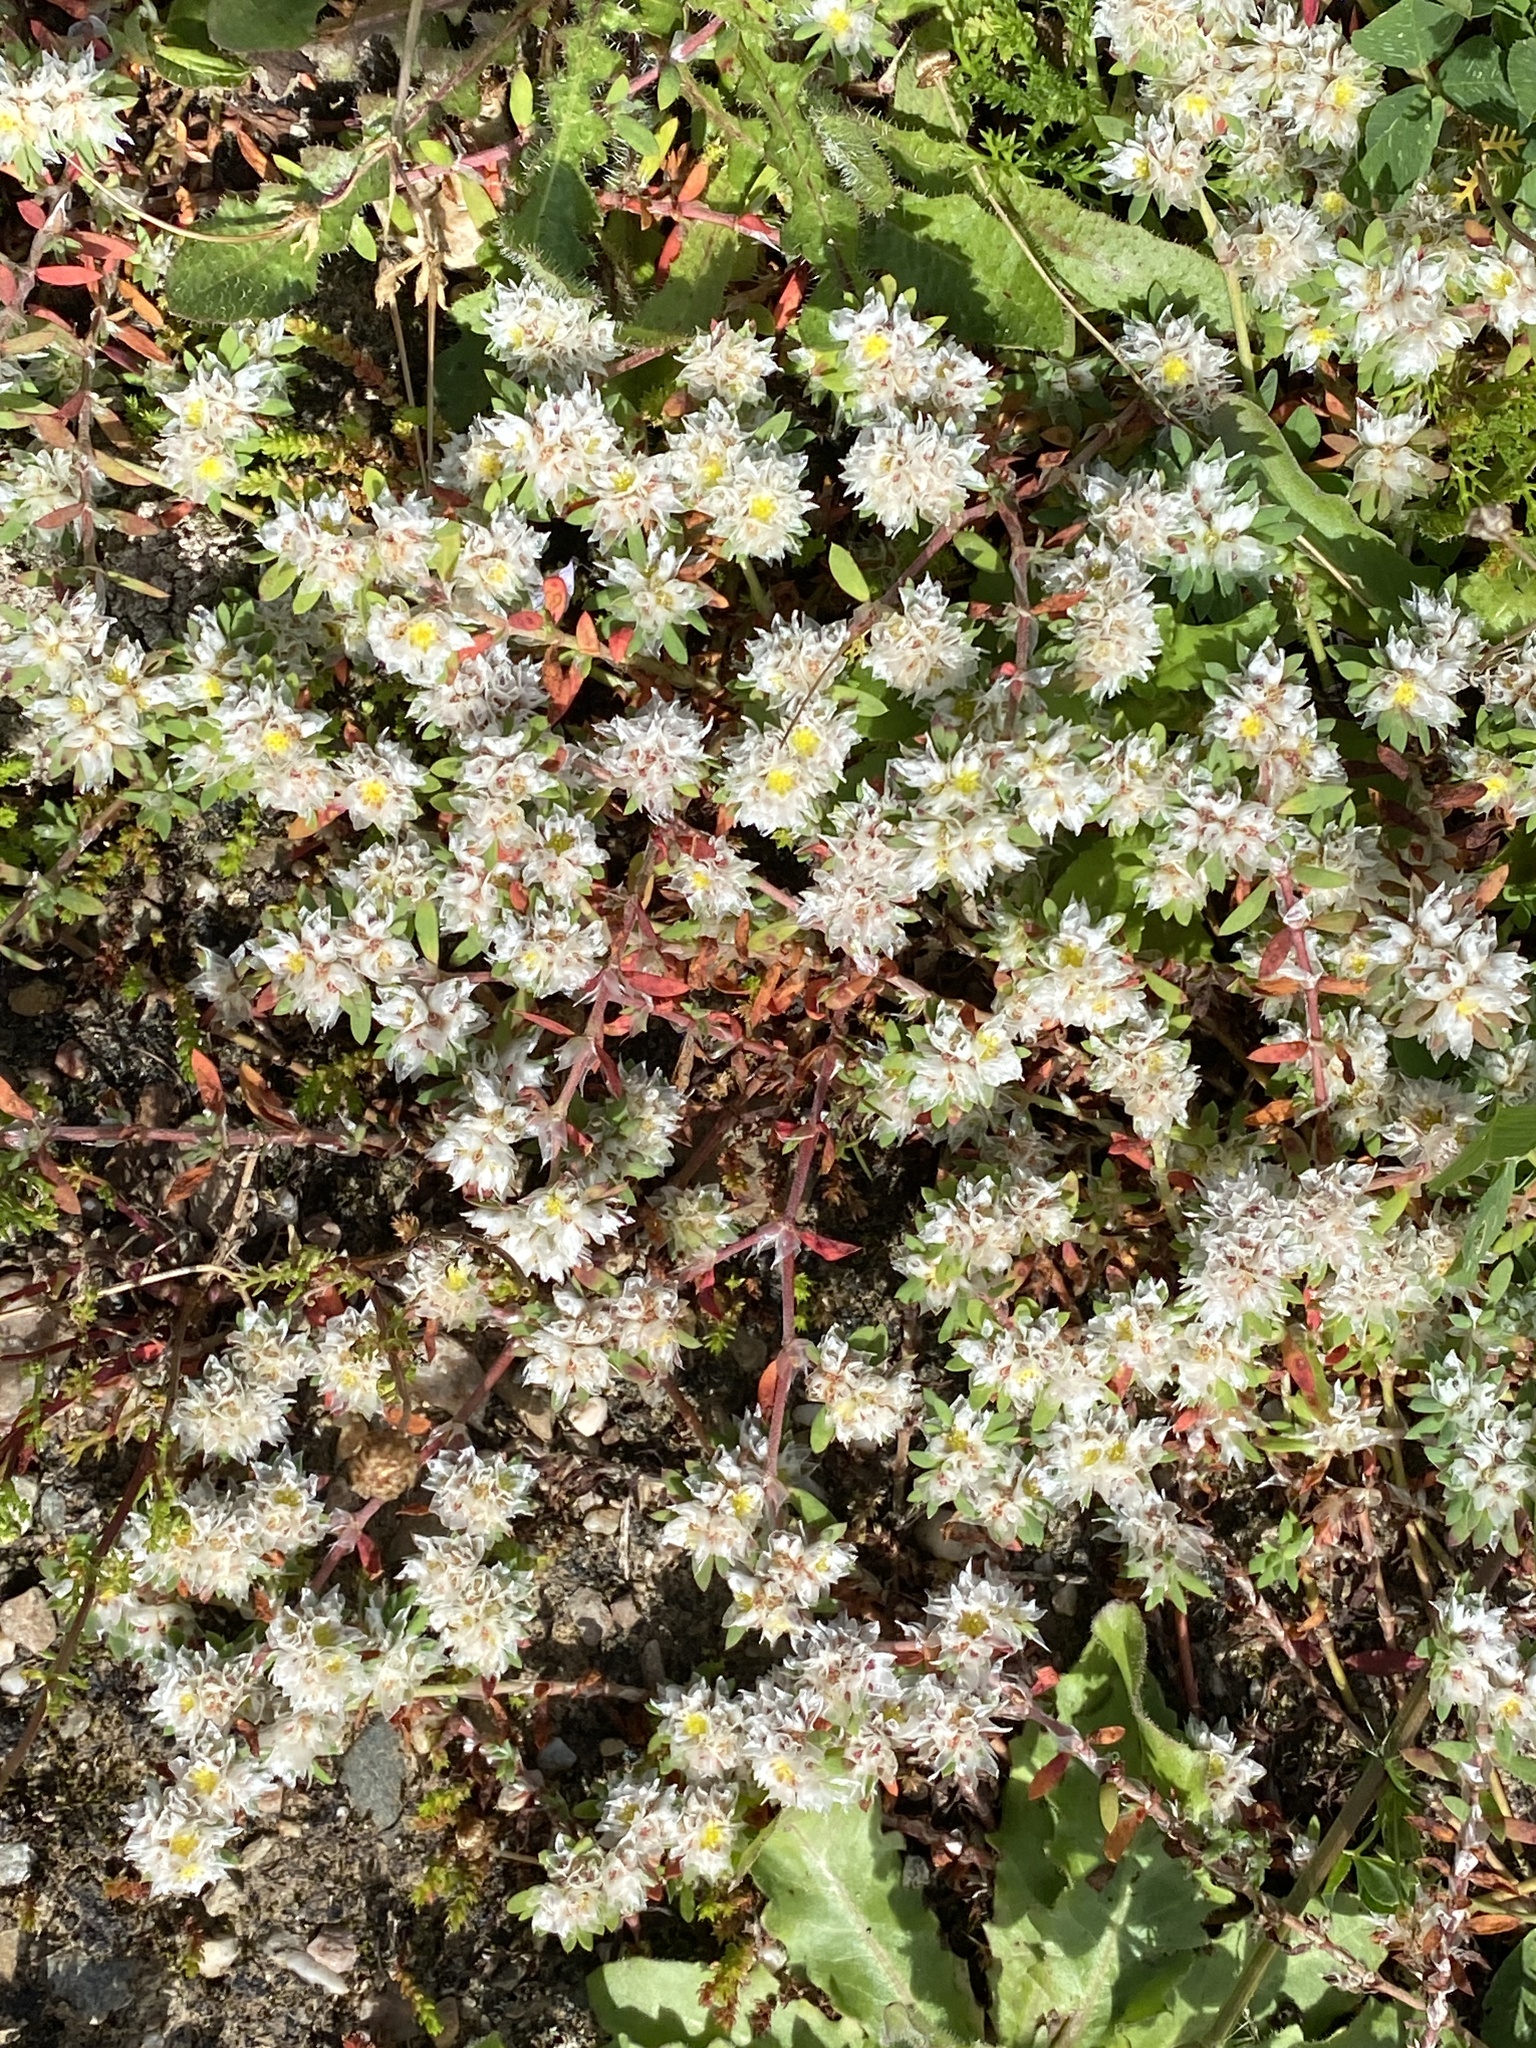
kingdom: Plantae
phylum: Tracheophyta
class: Magnoliopsida
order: Caryophyllales
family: Caryophyllaceae
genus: Paronychia
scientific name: Paronychia argentea
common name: Silver nailroot
